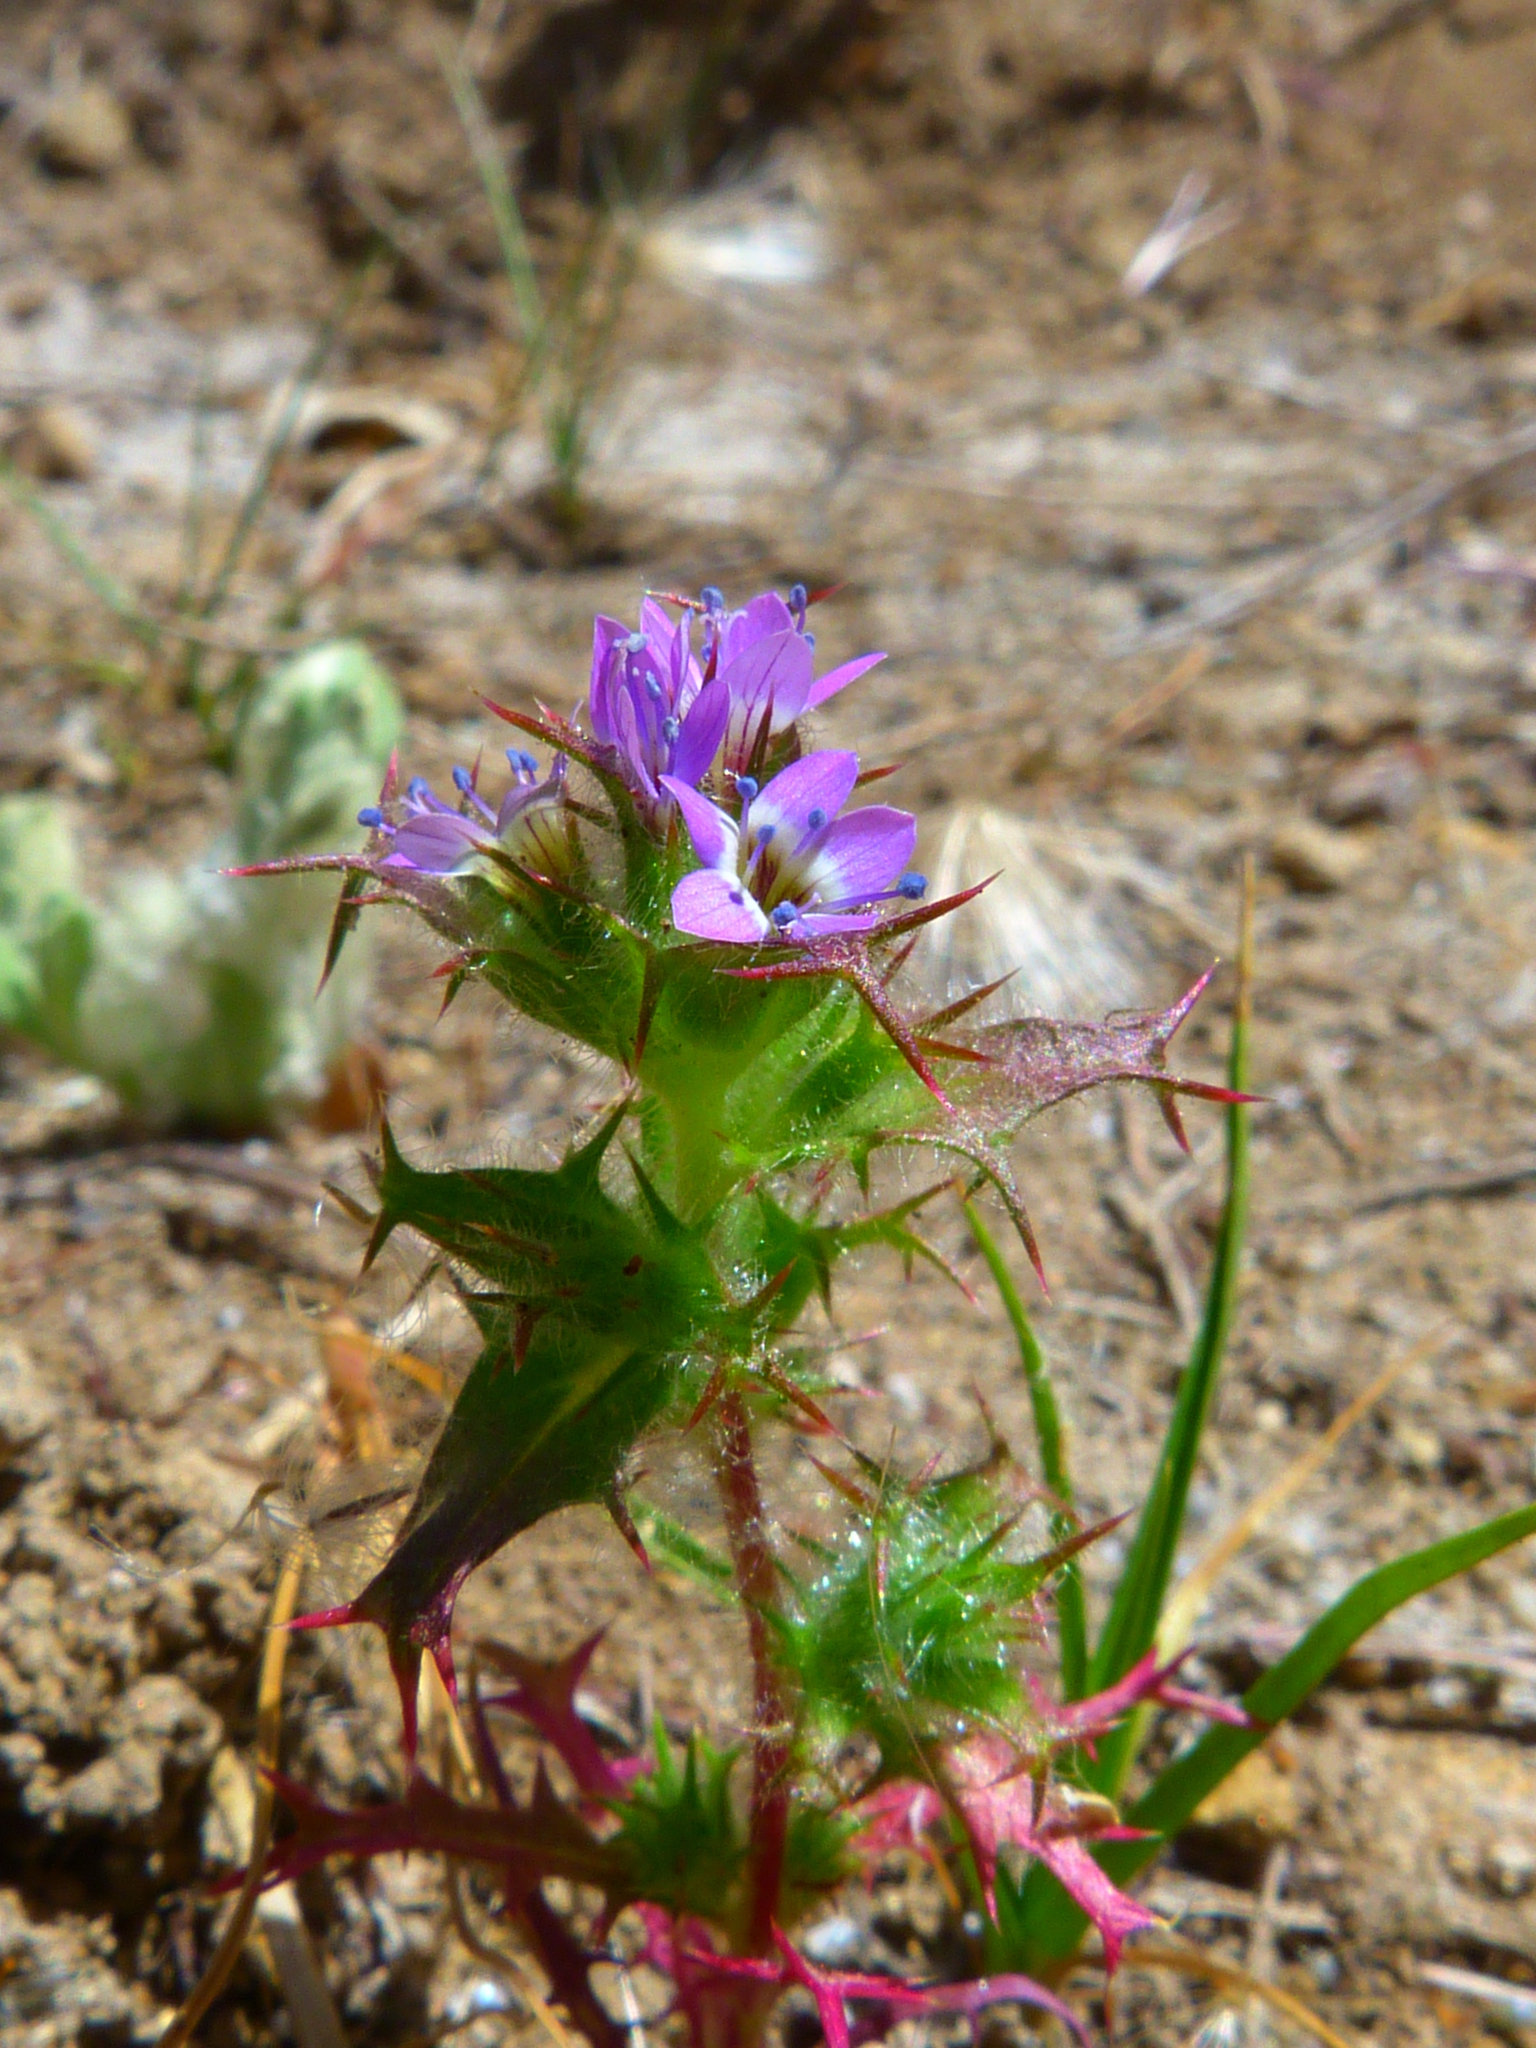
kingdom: Plantae
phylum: Tracheophyta
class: Magnoliopsida
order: Ericales
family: Polemoniaceae
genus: Navarretia
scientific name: Navarretia hamata
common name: Hooked navarretia
